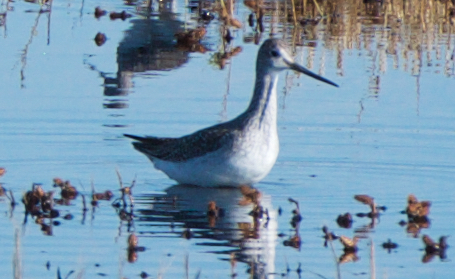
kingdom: Animalia
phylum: Chordata
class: Aves
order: Charadriiformes
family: Scolopacidae
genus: Tringa
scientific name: Tringa melanoleuca
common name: Greater yellowlegs
